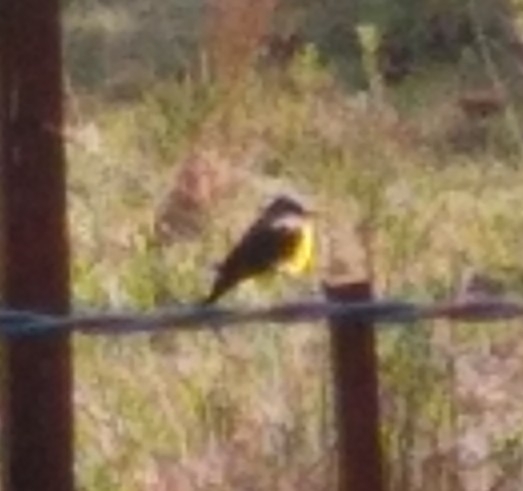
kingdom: Animalia
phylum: Chordata
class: Aves
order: Passeriformes
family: Tyrannidae
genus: Tyrannus
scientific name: Tyrannus melancholicus
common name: Tropical kingbird
